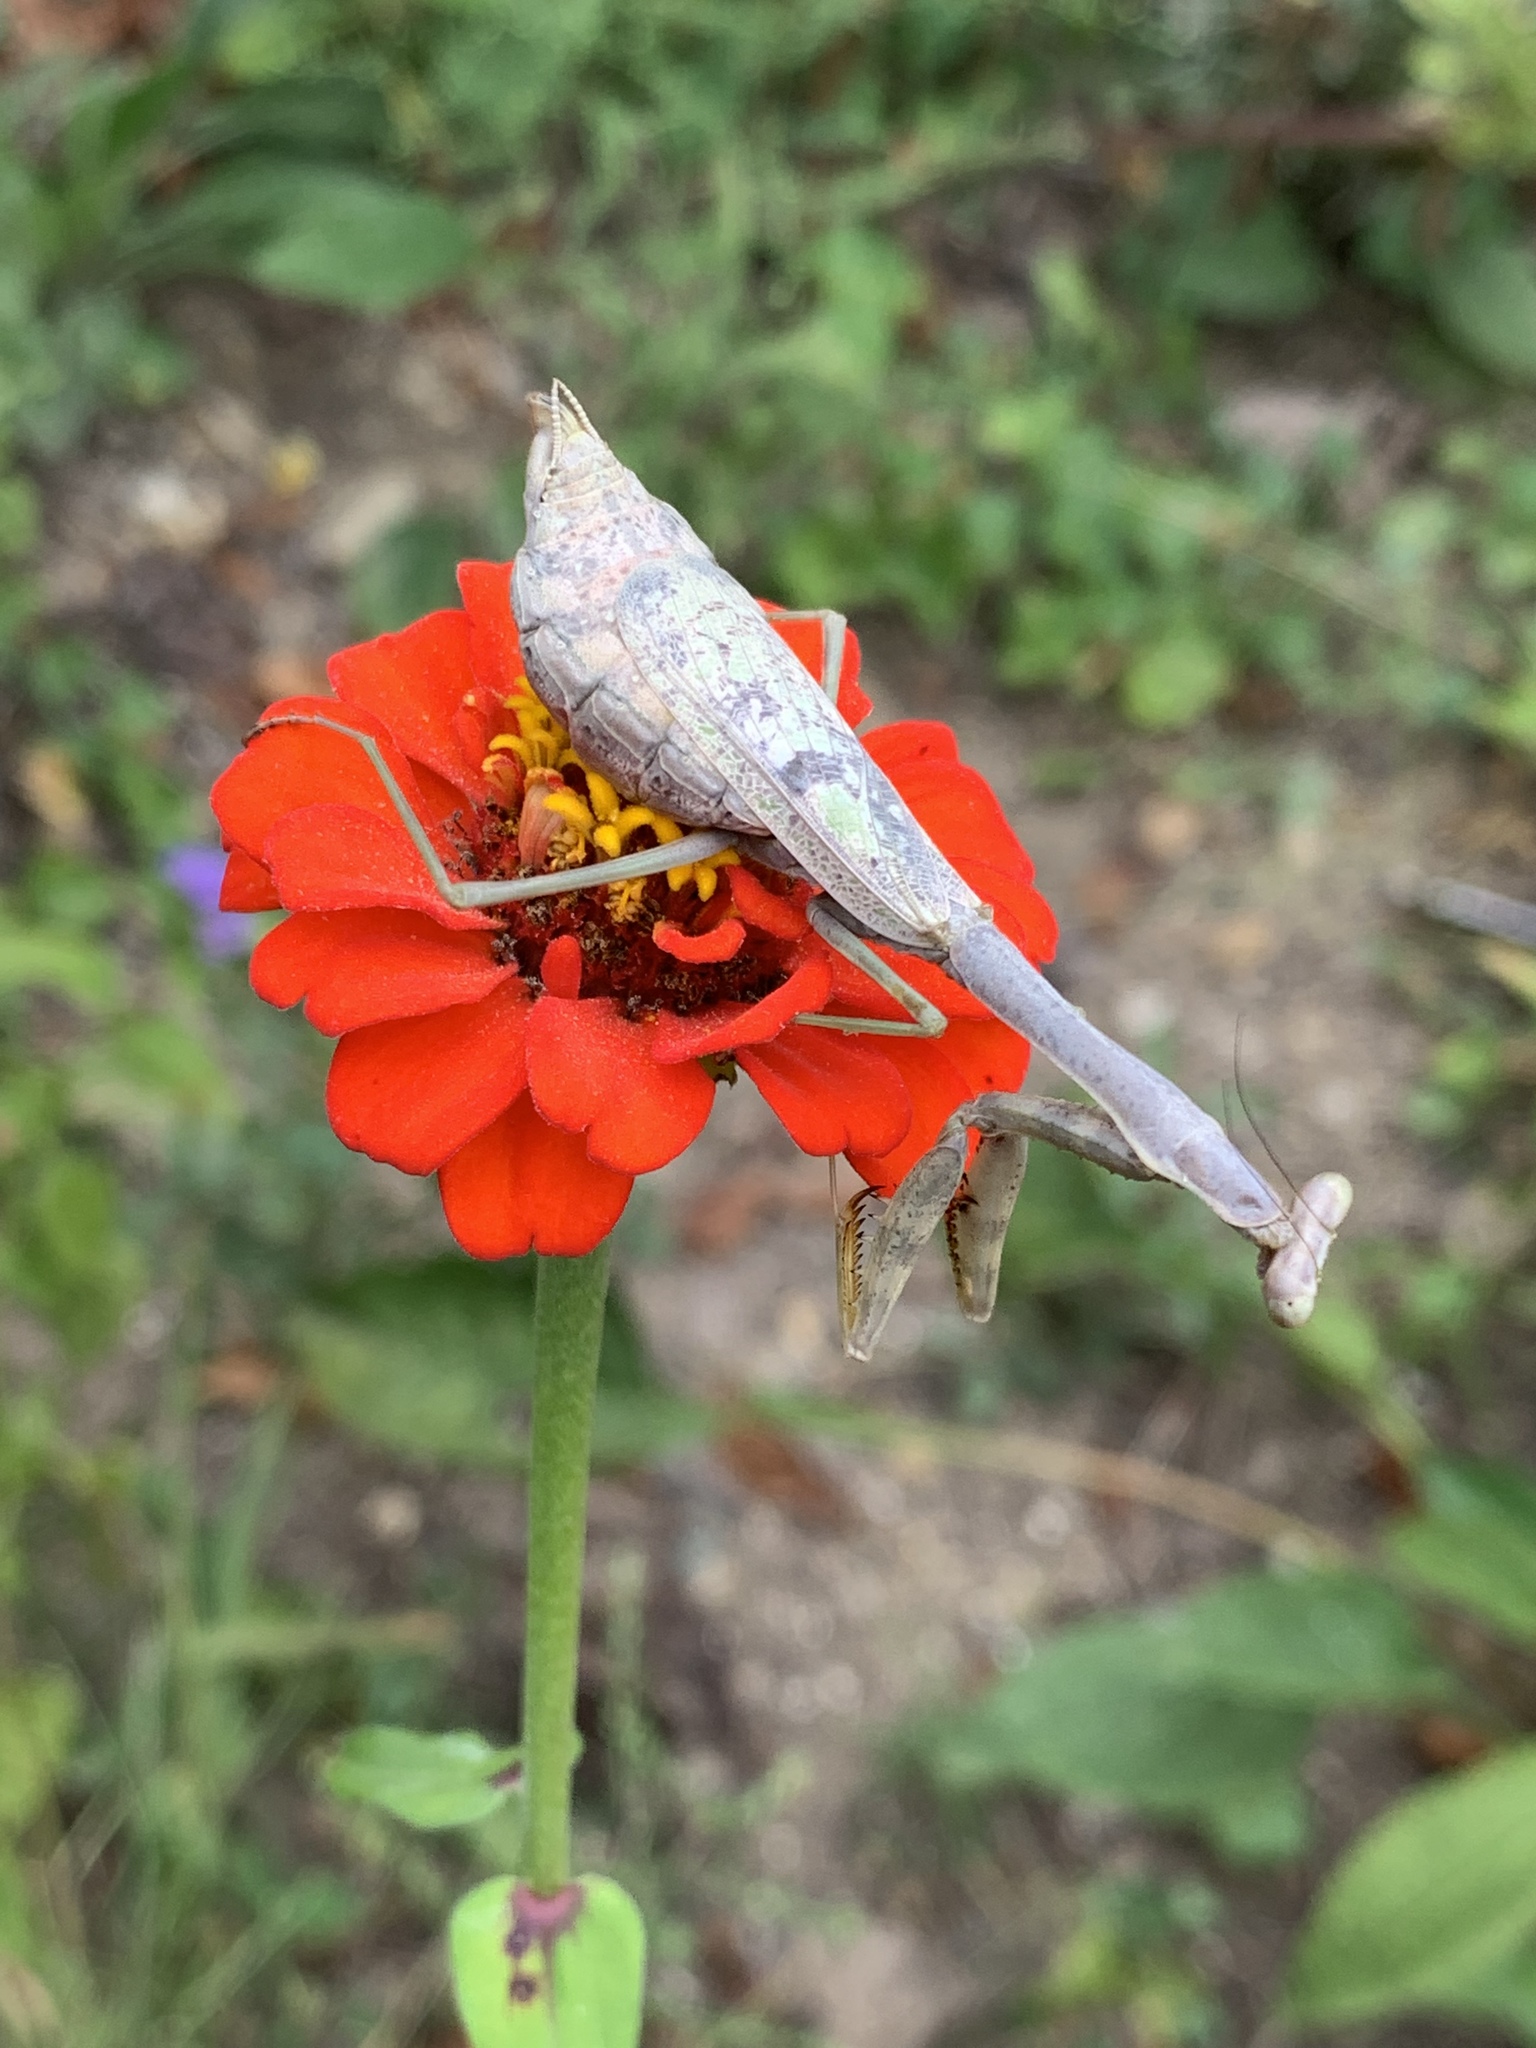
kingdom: Animalia
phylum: Arthropoda
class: Insecta
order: Mantodea
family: Mantidae
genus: Stagmomantis
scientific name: Stagmomantis carolina
